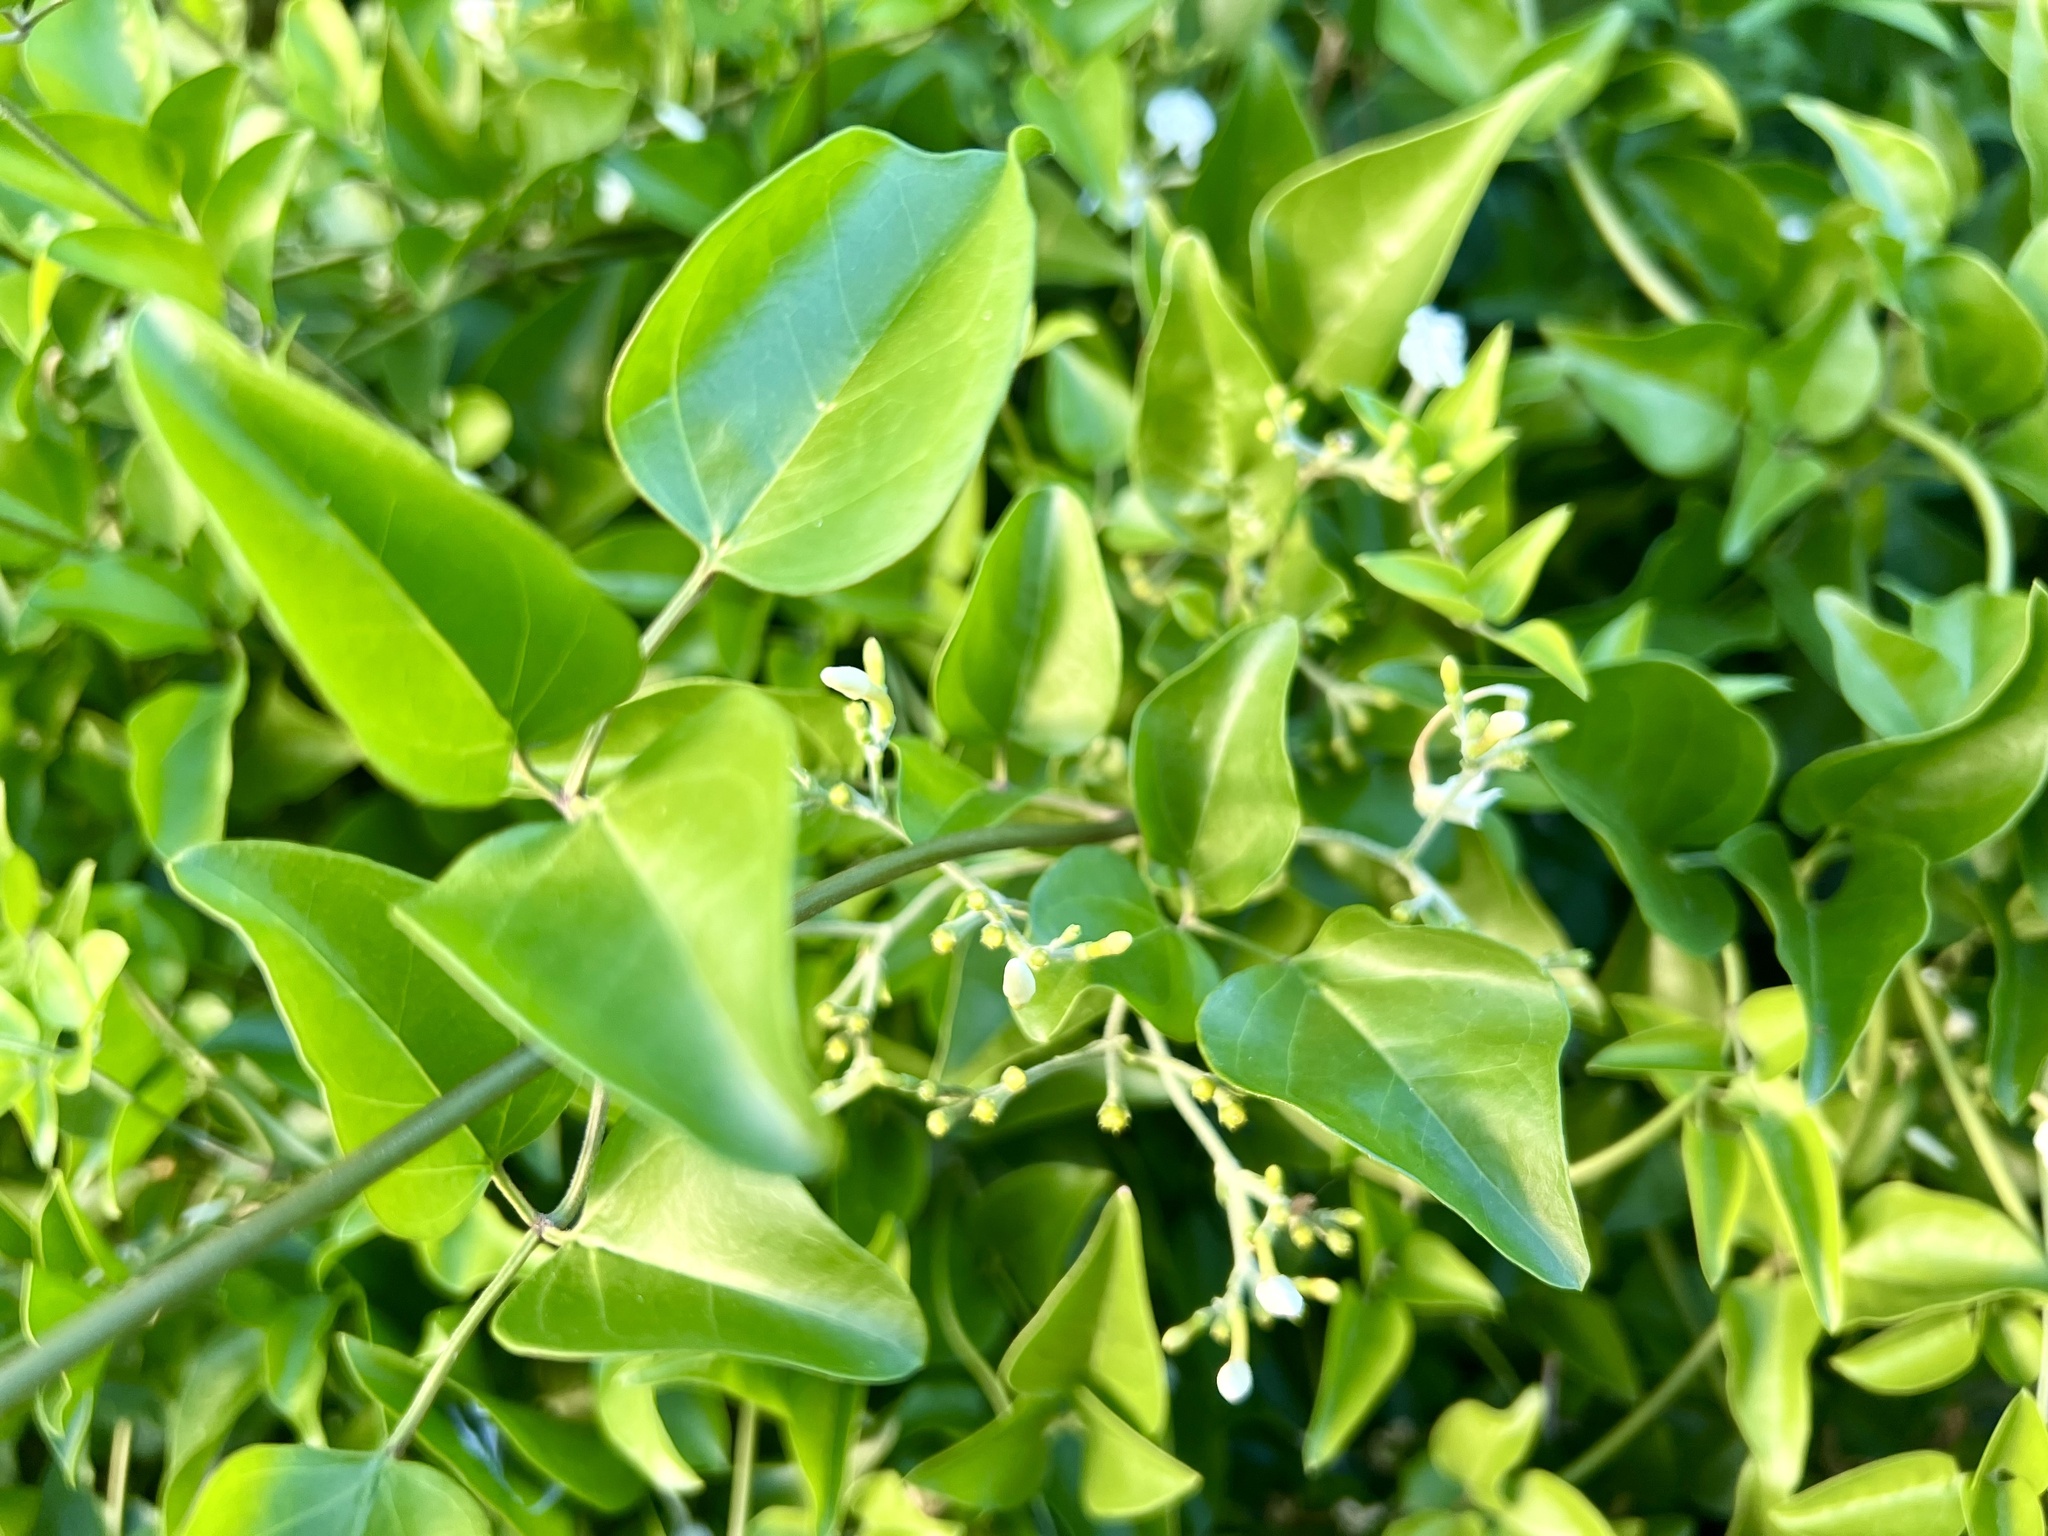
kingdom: Plantae
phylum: Tracheophyta
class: Magnoliopsida
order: Lamiales
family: Oleaceae
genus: Jasminum
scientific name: Jasminum fluminense
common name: Brazilian jasmine
